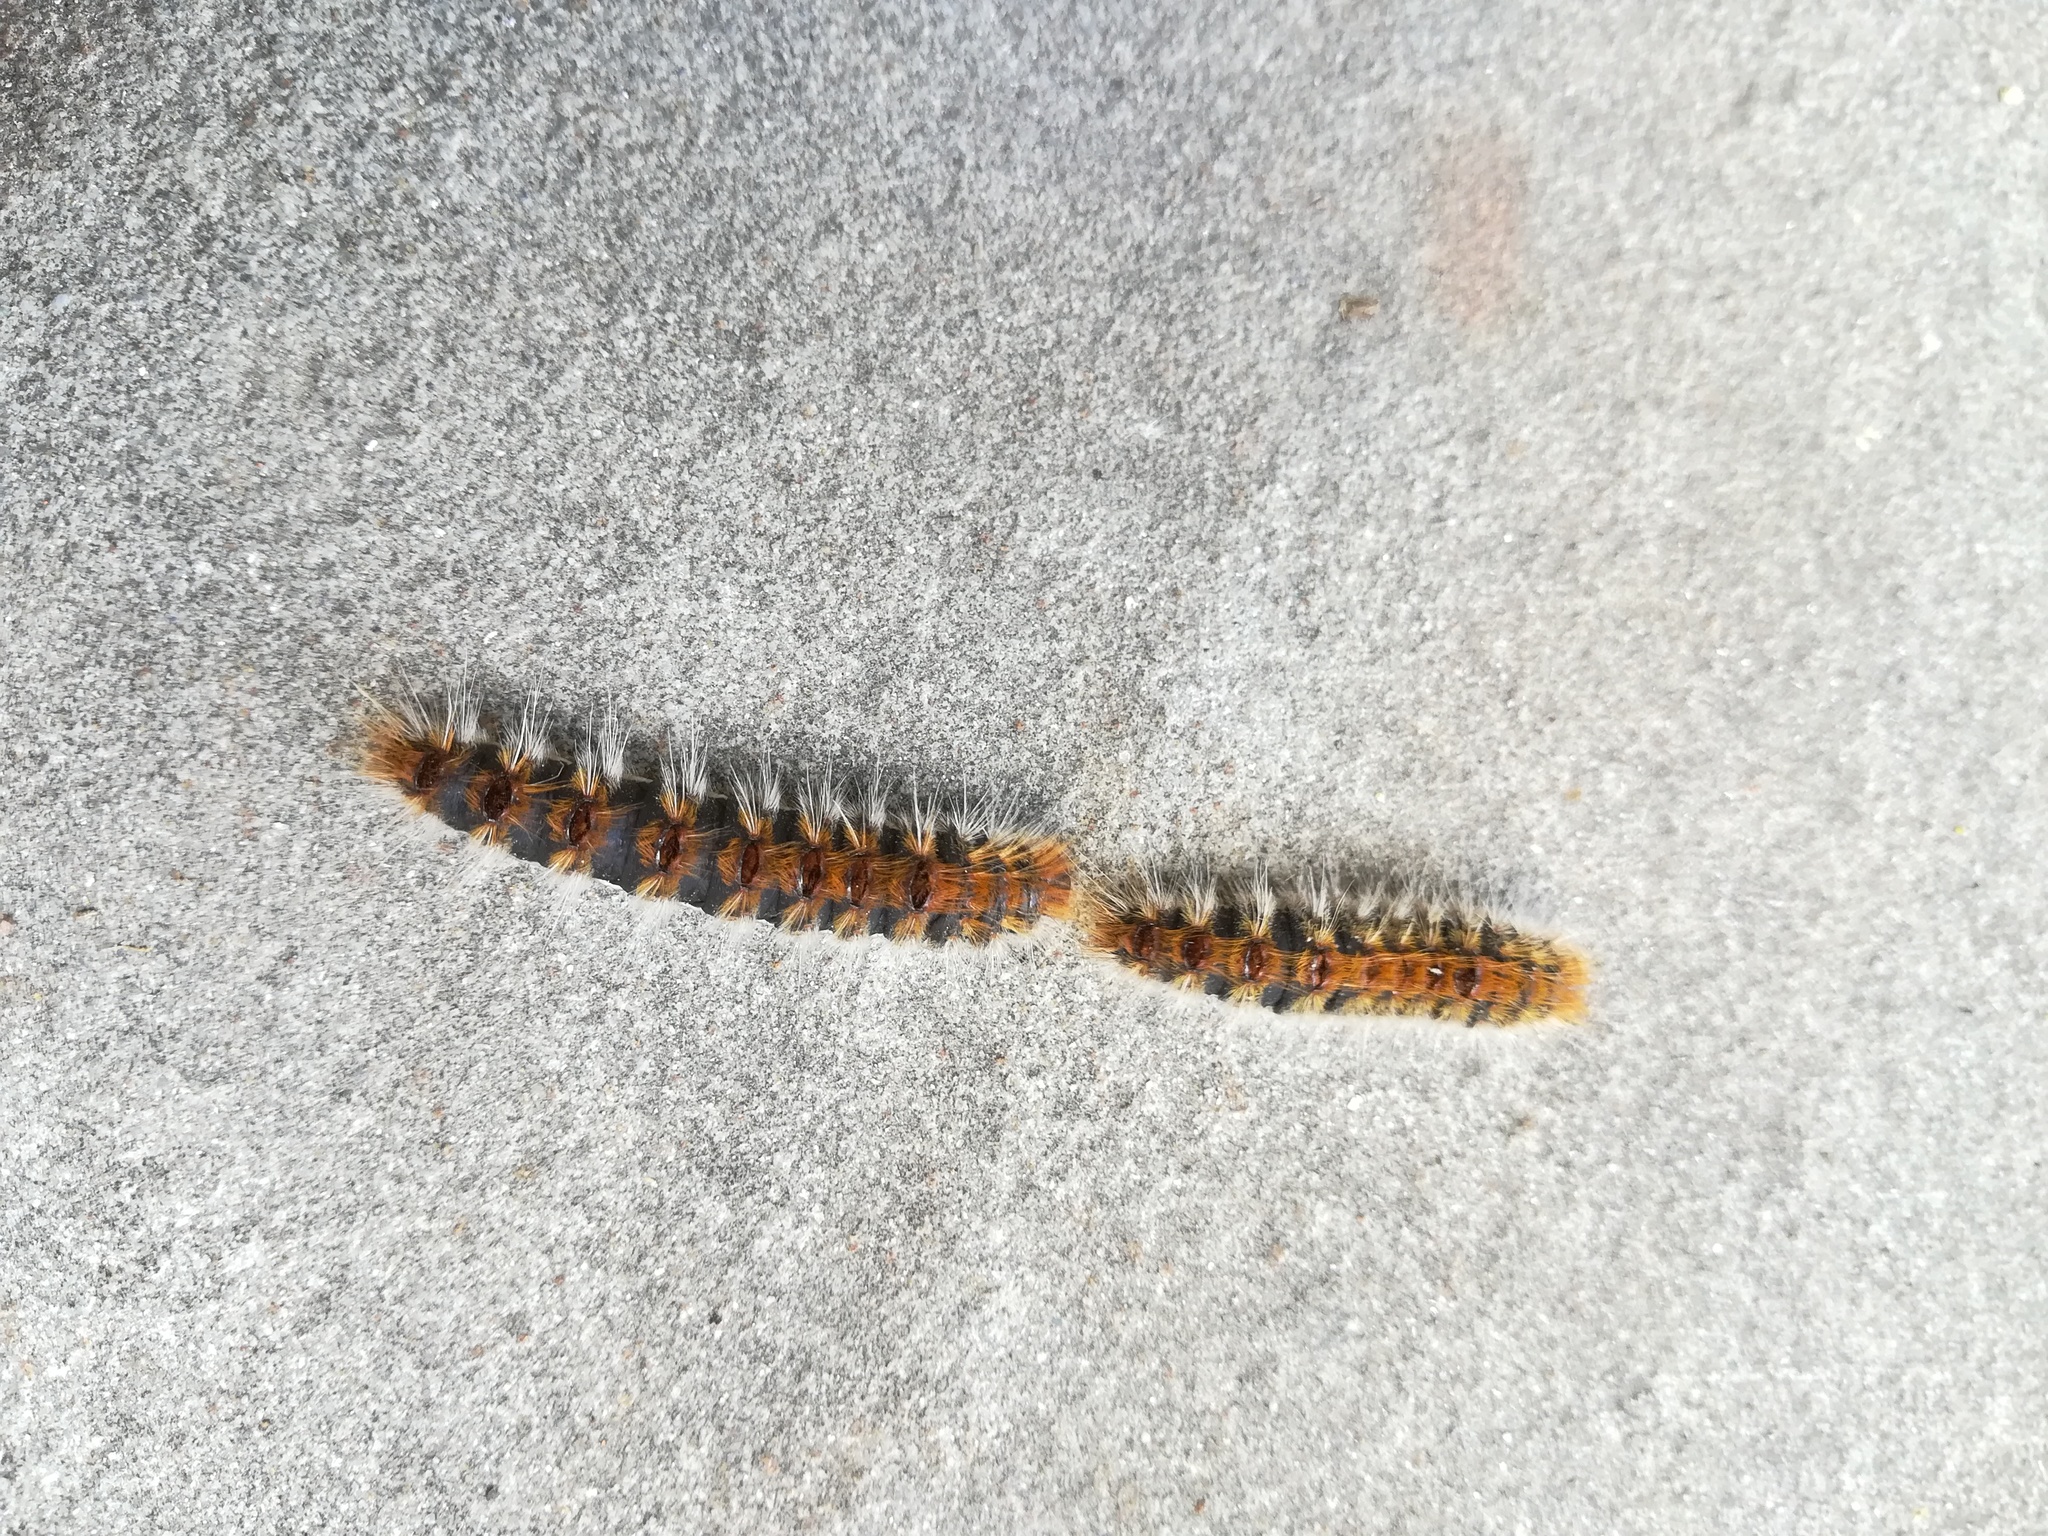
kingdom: Animalia
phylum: Arthropoda
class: Insecta
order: Lepidoptera
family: Notodontidae
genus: Thaumetopoea
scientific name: Thaumetopoea pityocampa
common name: Pine processionary
